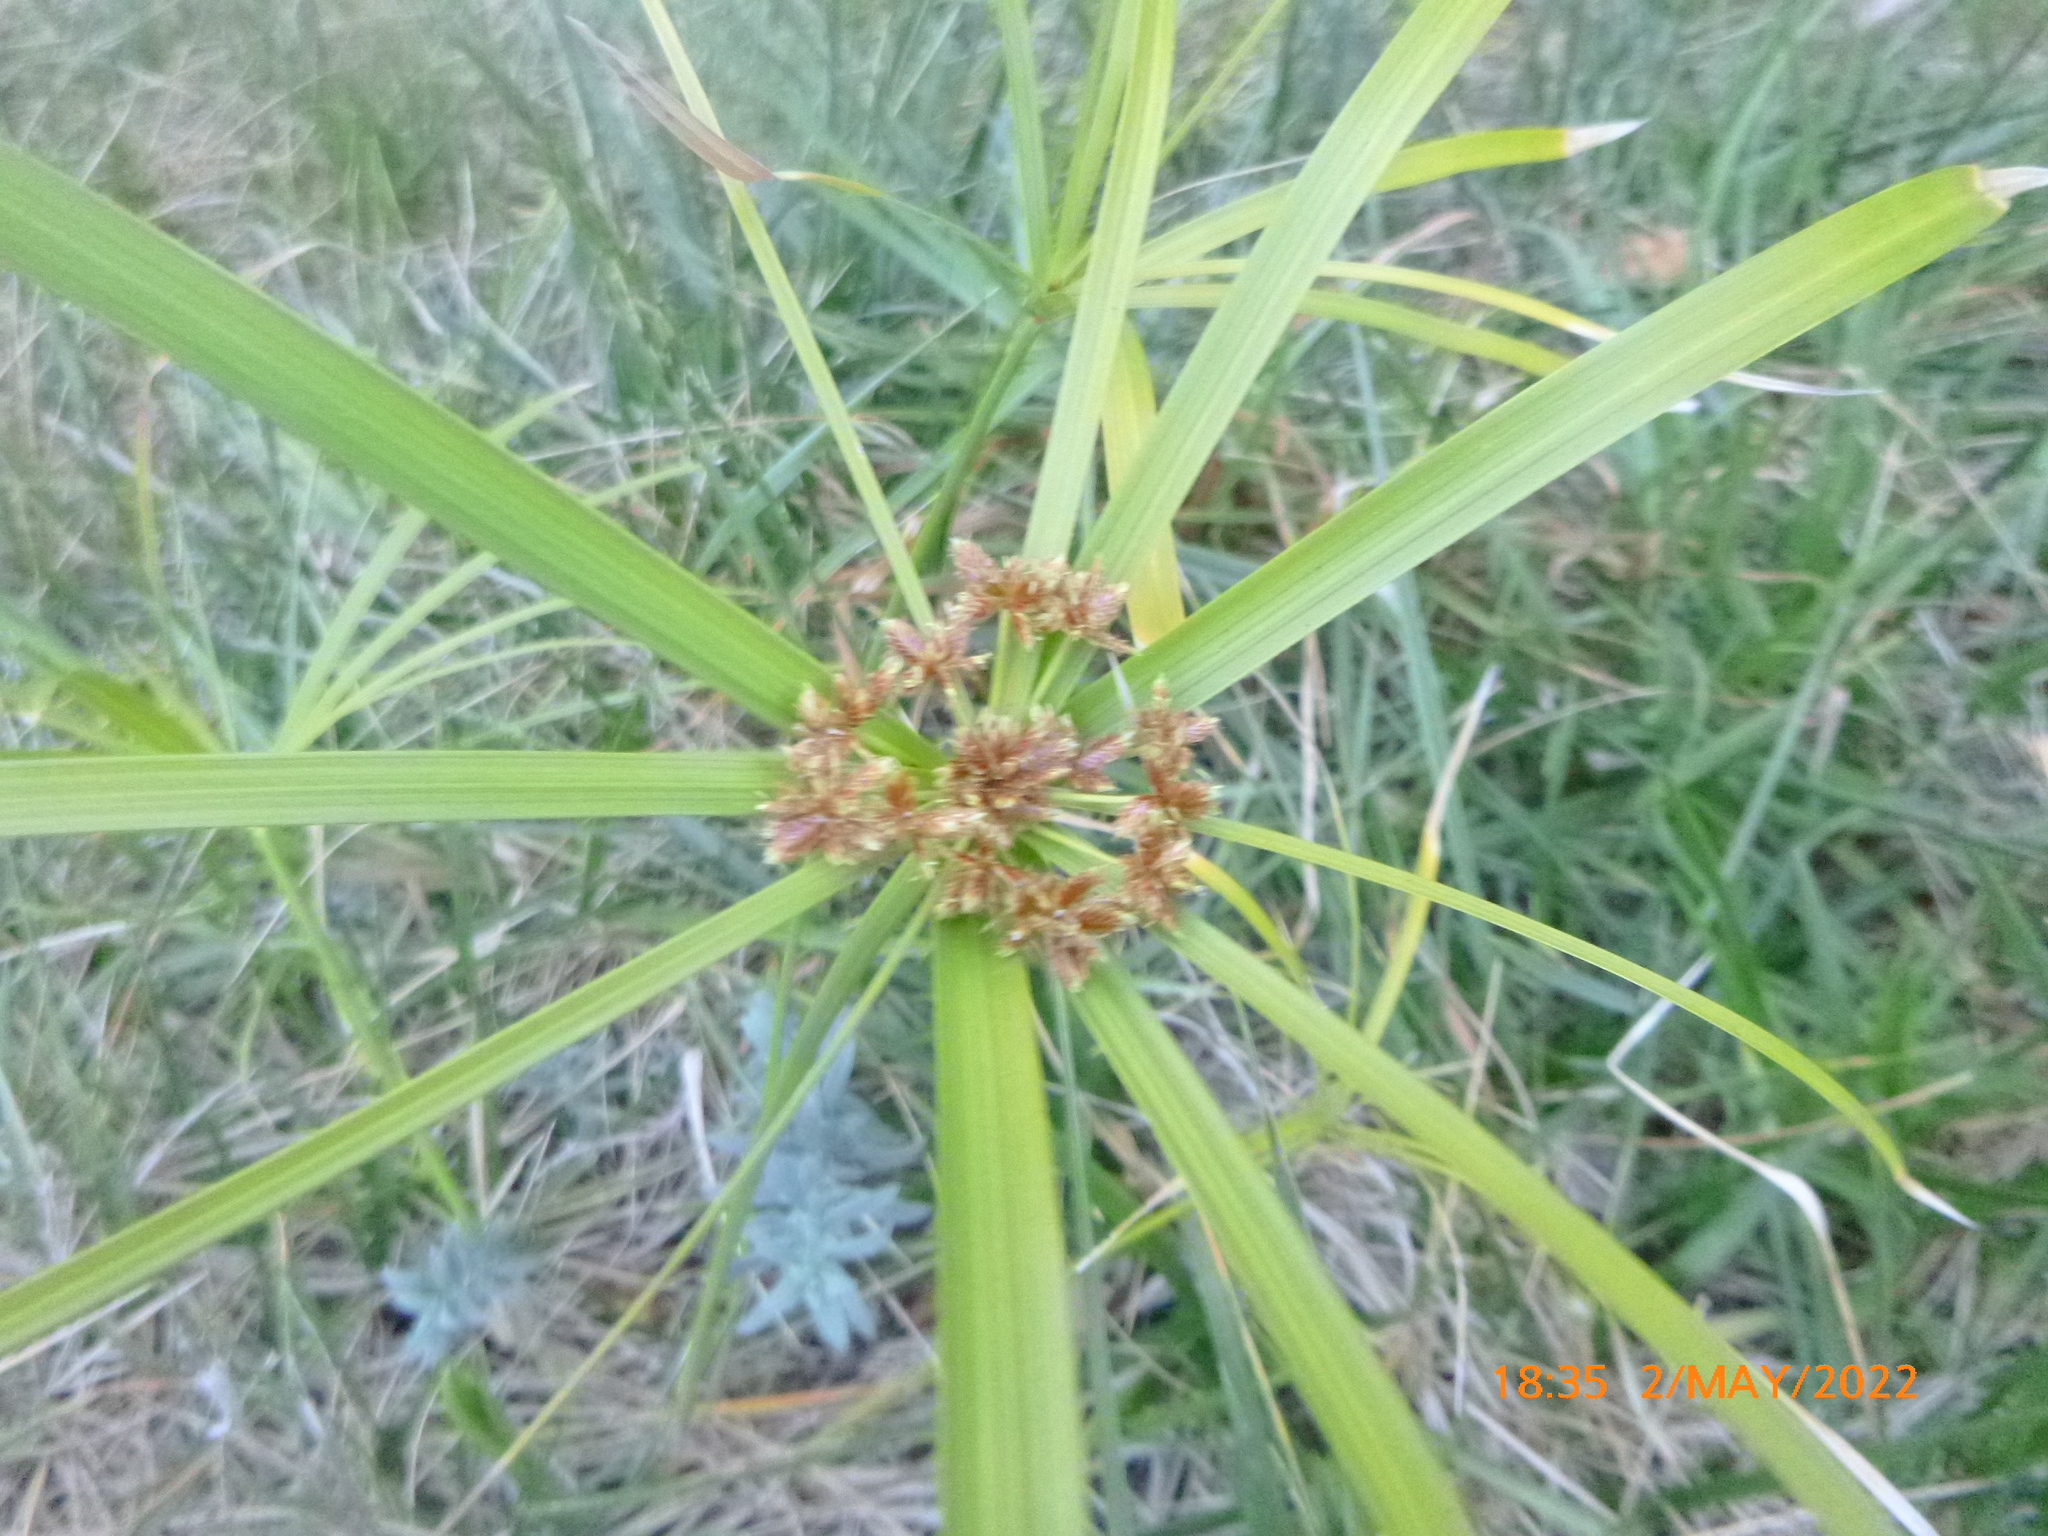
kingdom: Plantae
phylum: Tracheophyta
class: Liliopsida
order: Poales
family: Cyperaceae
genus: Cyperus
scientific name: Cyperus alternifolius
